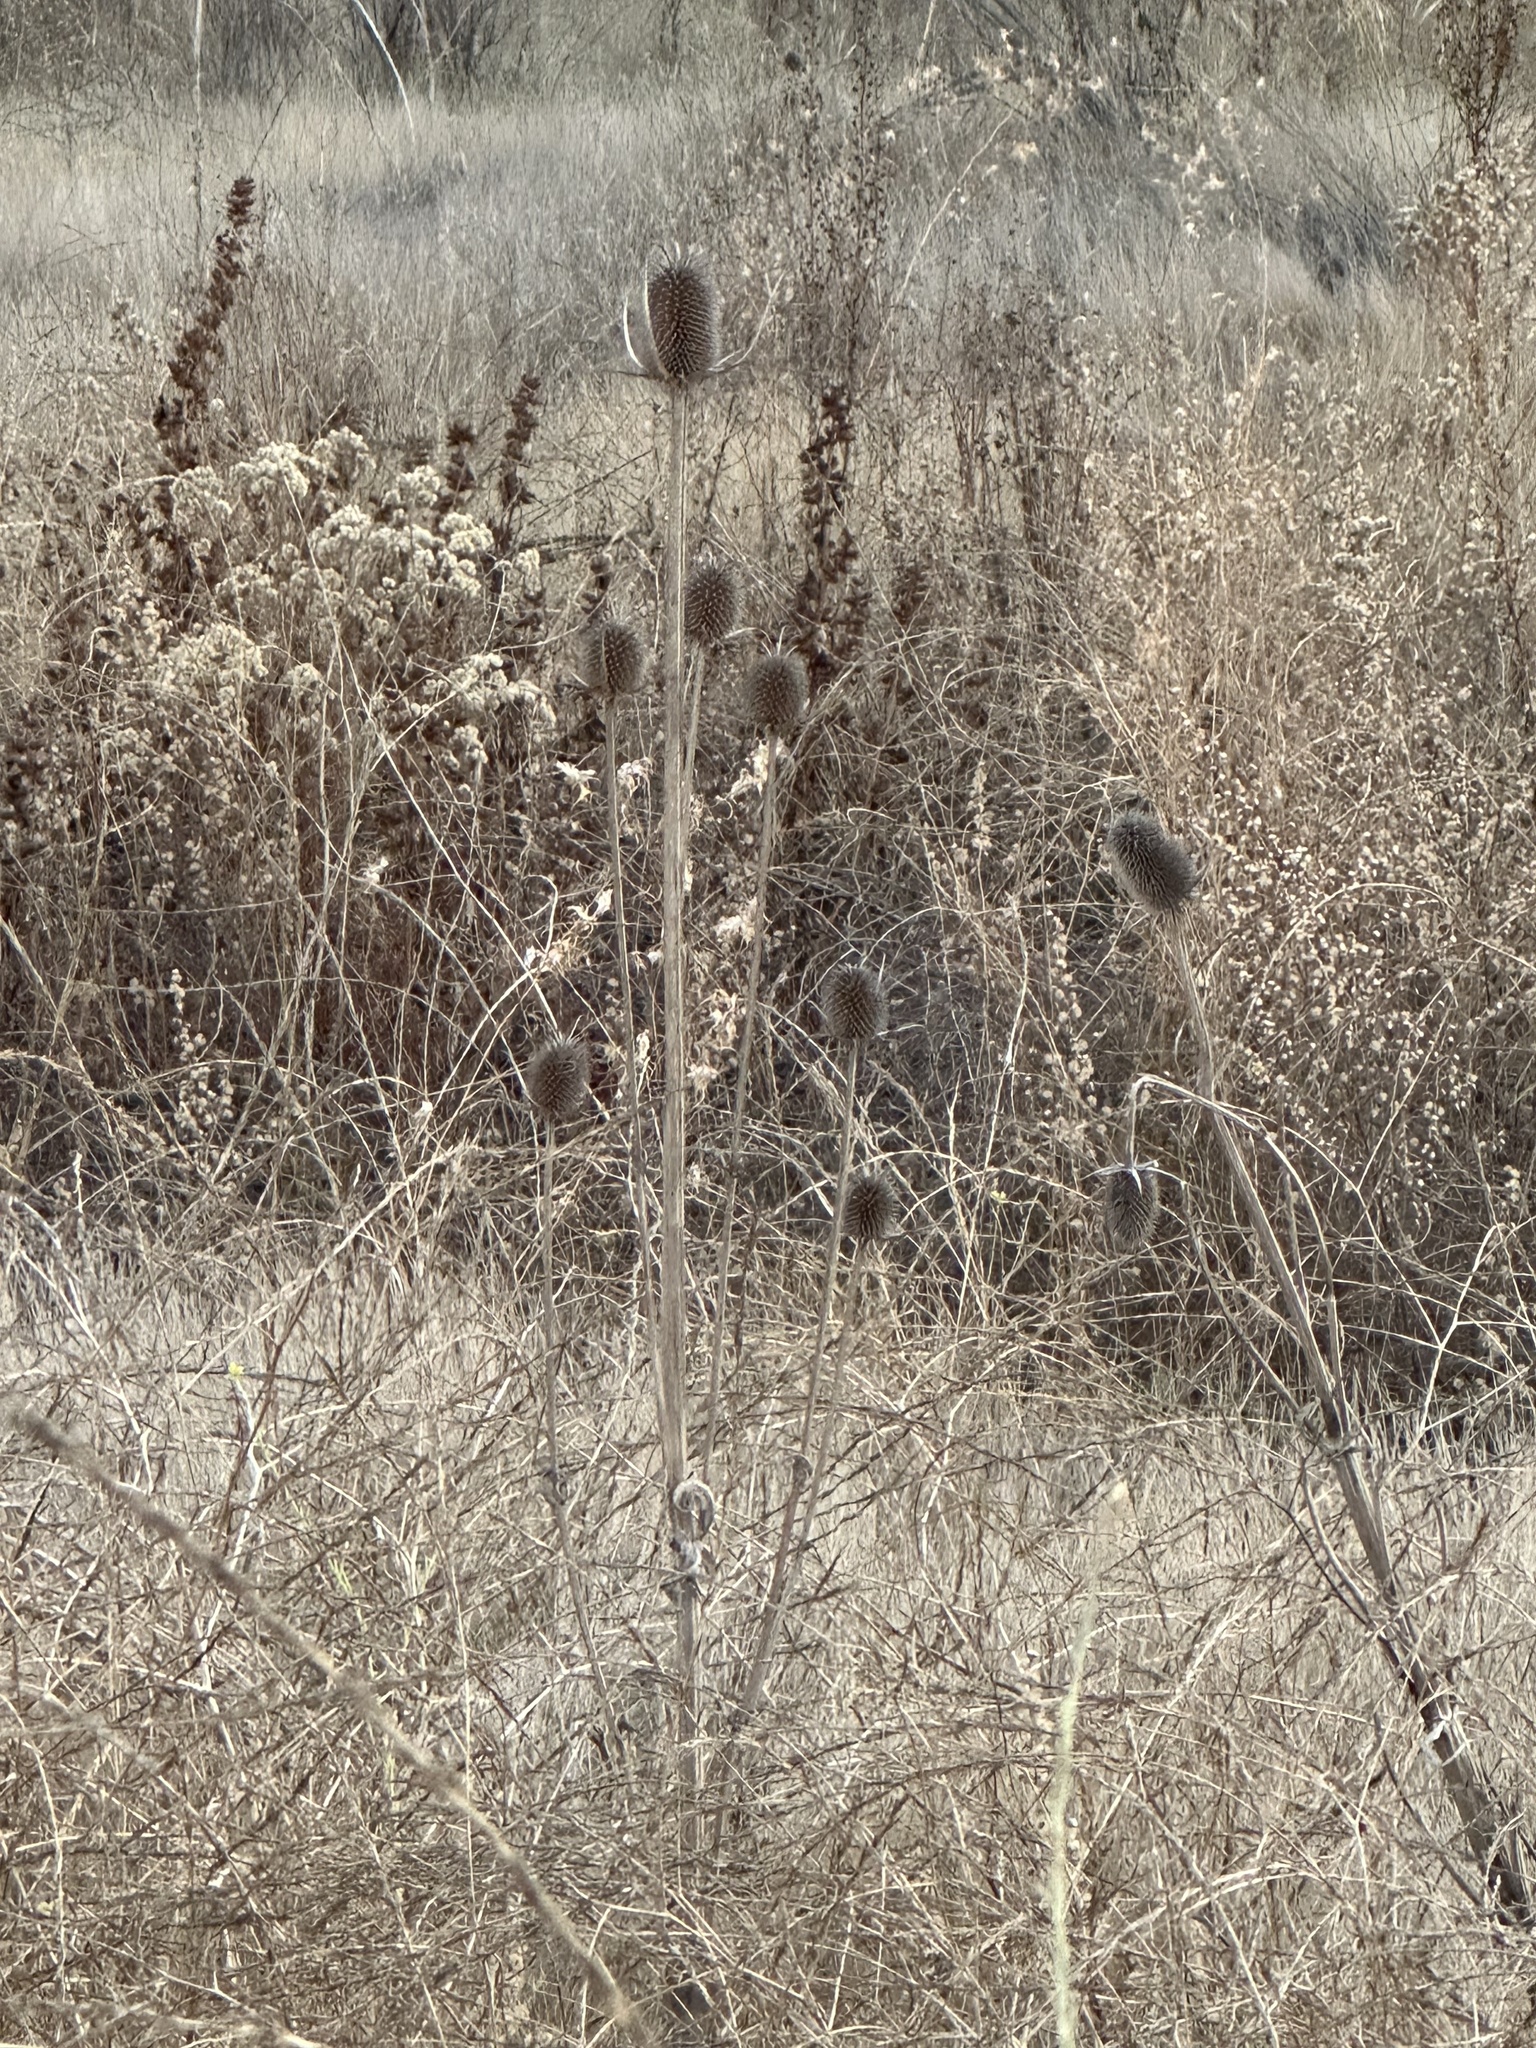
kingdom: Plantae
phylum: Tracheophyta
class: Magnoliopsida
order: Dipsacales
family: Caprifoliaceae
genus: Dipsacus
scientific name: Dipsacus sativus
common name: Fuller's teasel
